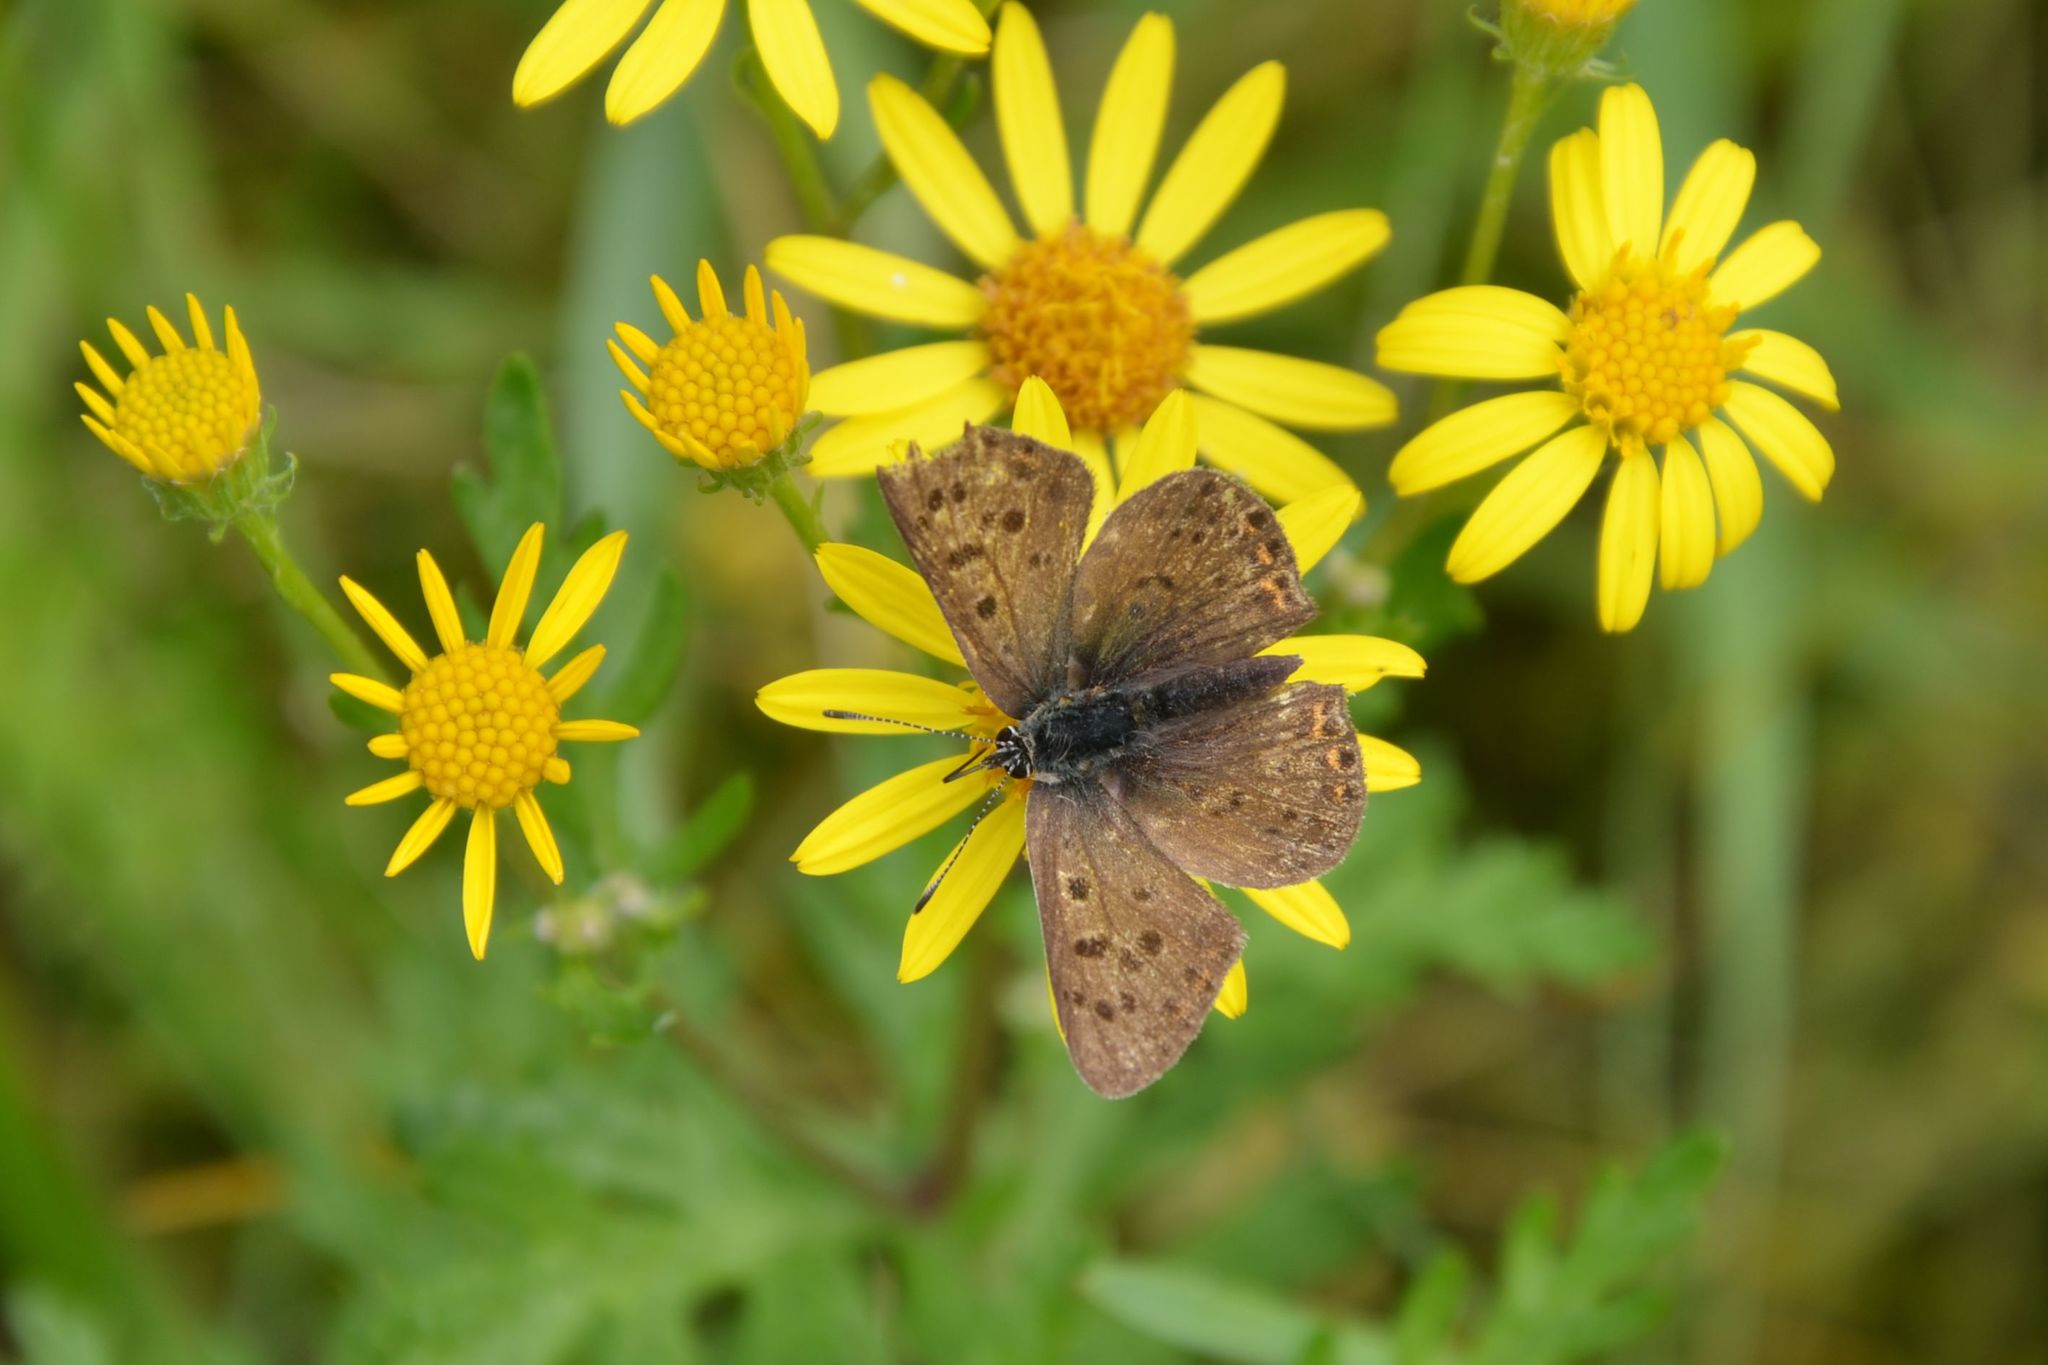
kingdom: Animalia
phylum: Arthropoda
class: Insecta
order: Lepidoptera
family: Lycaenidae
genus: Loweia
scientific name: Loweia tityrus
